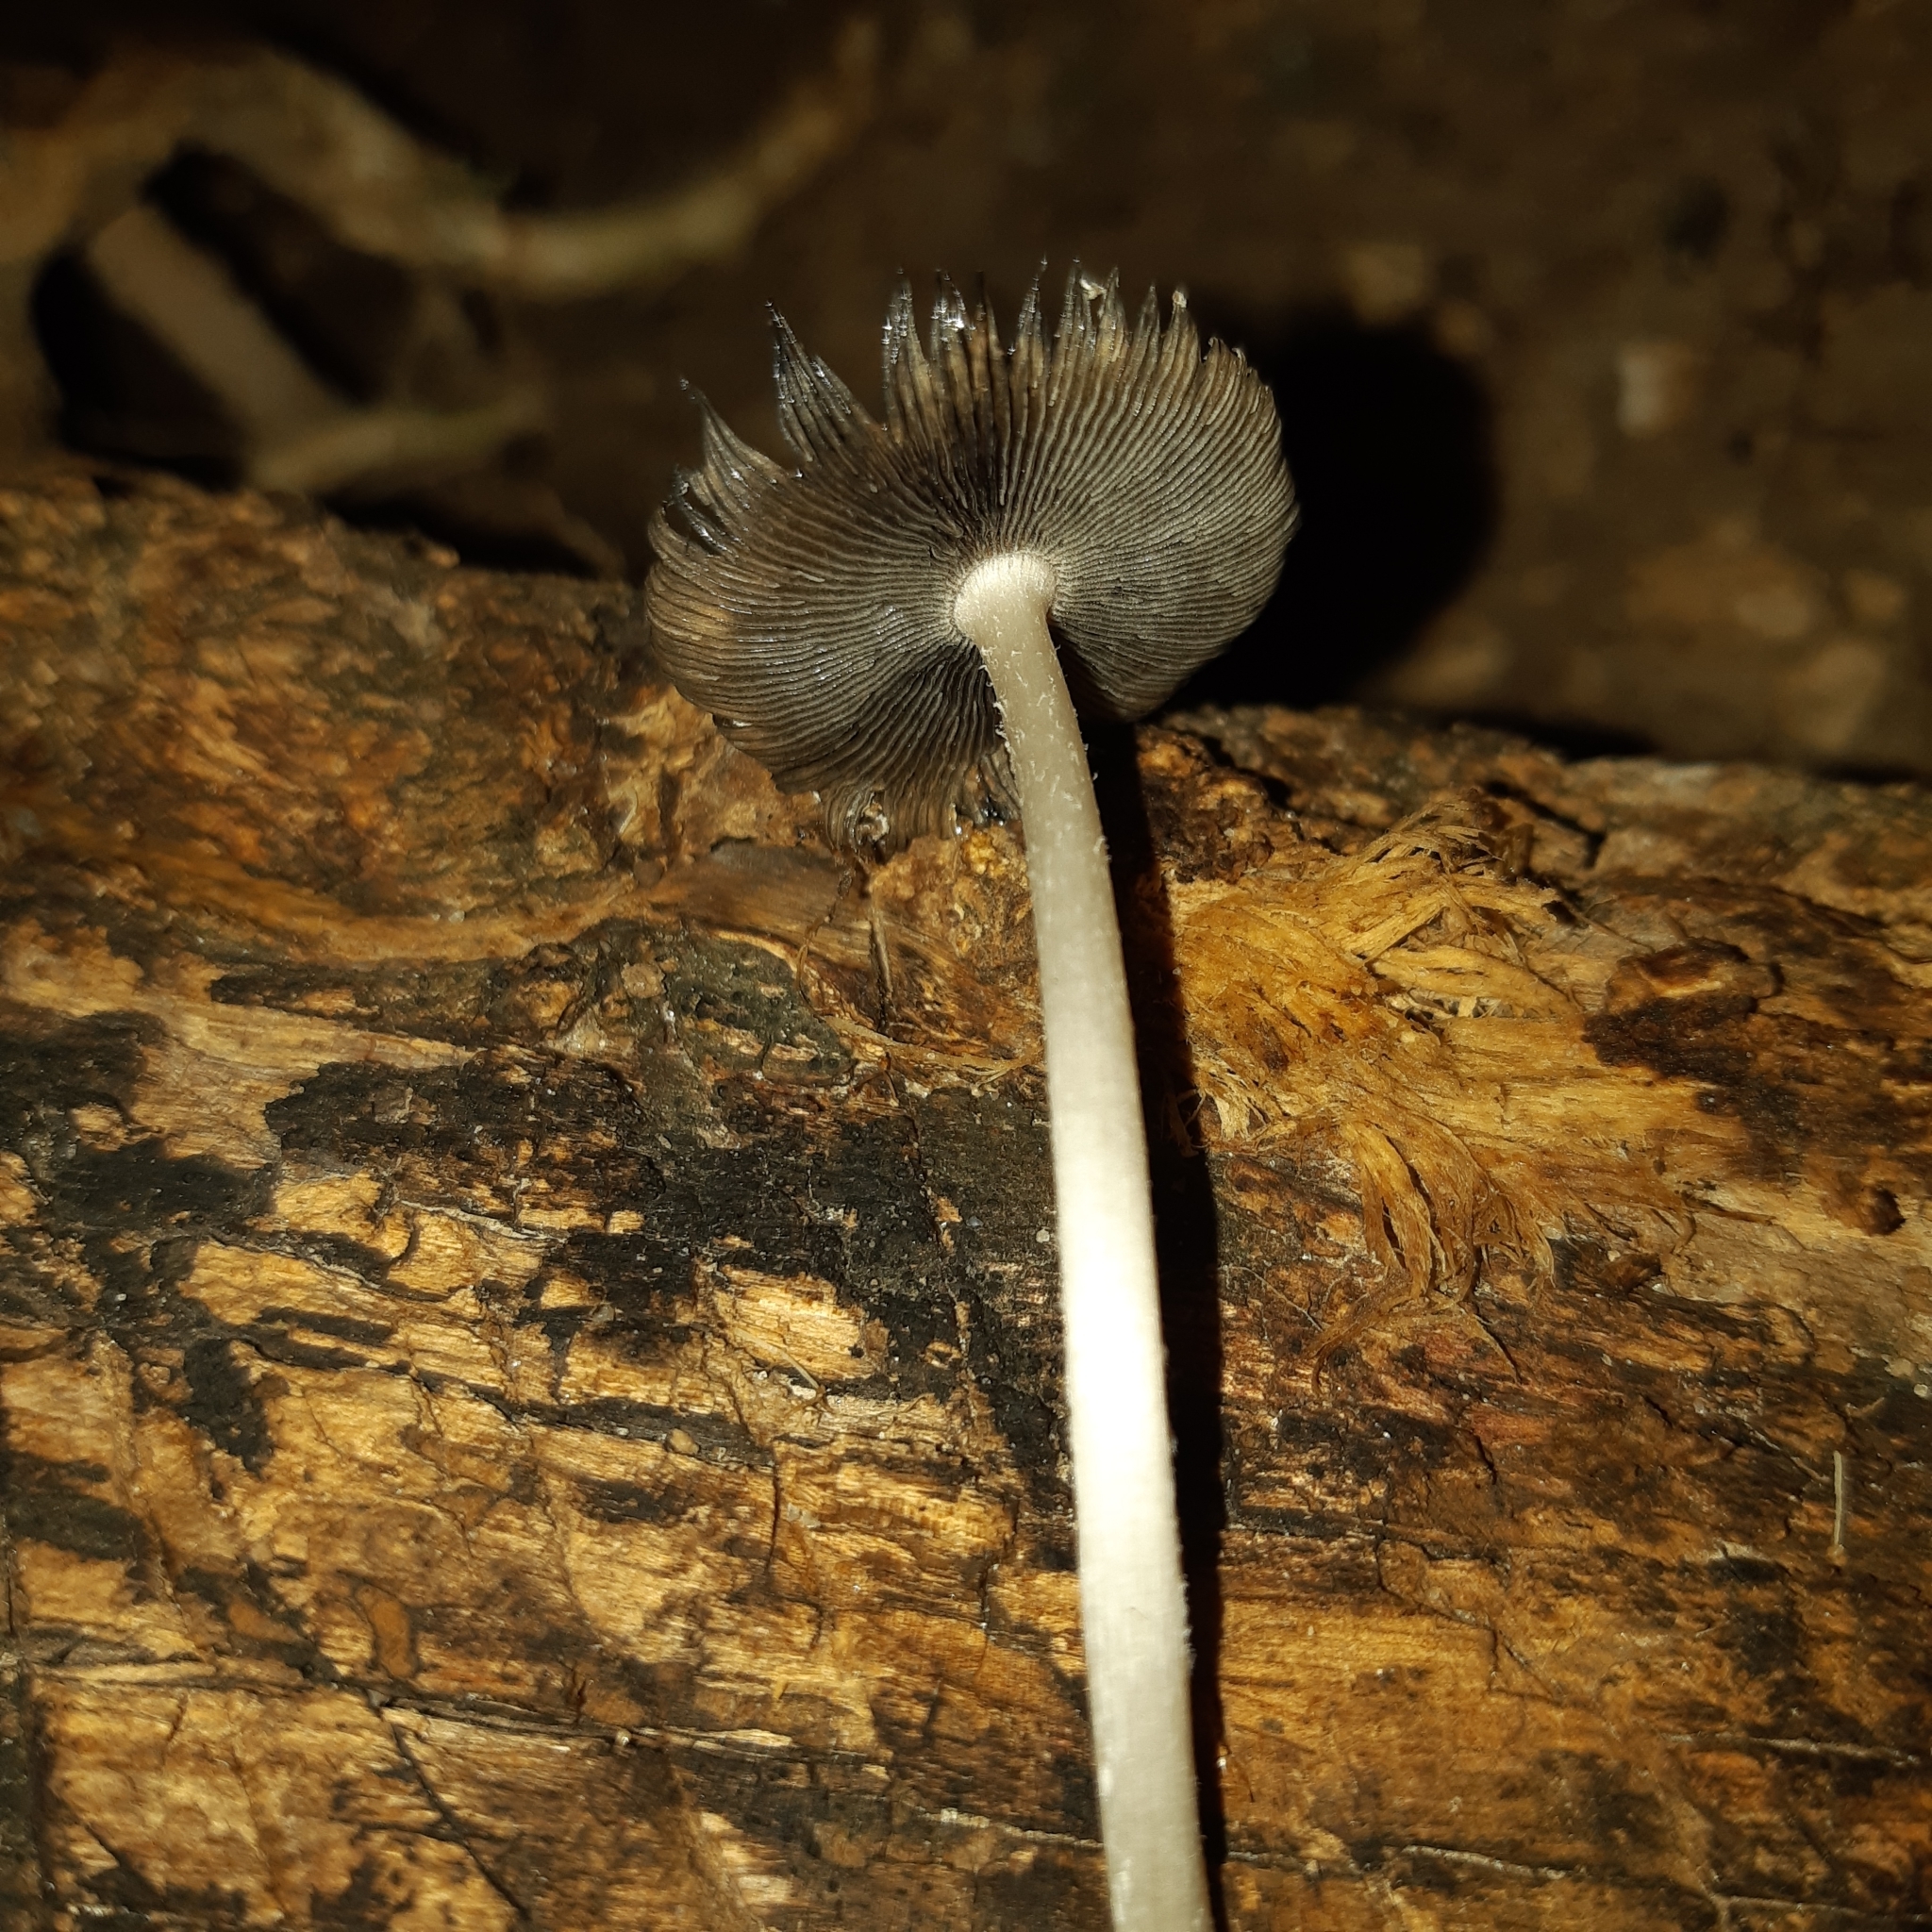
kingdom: Fungi
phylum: Basidiomycota
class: Agaricomycetes
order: Agaricales
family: Psathyrellaceae
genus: Coprinopsis
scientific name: Coprinopsis lagopus
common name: Hare'sfoot inkcap
